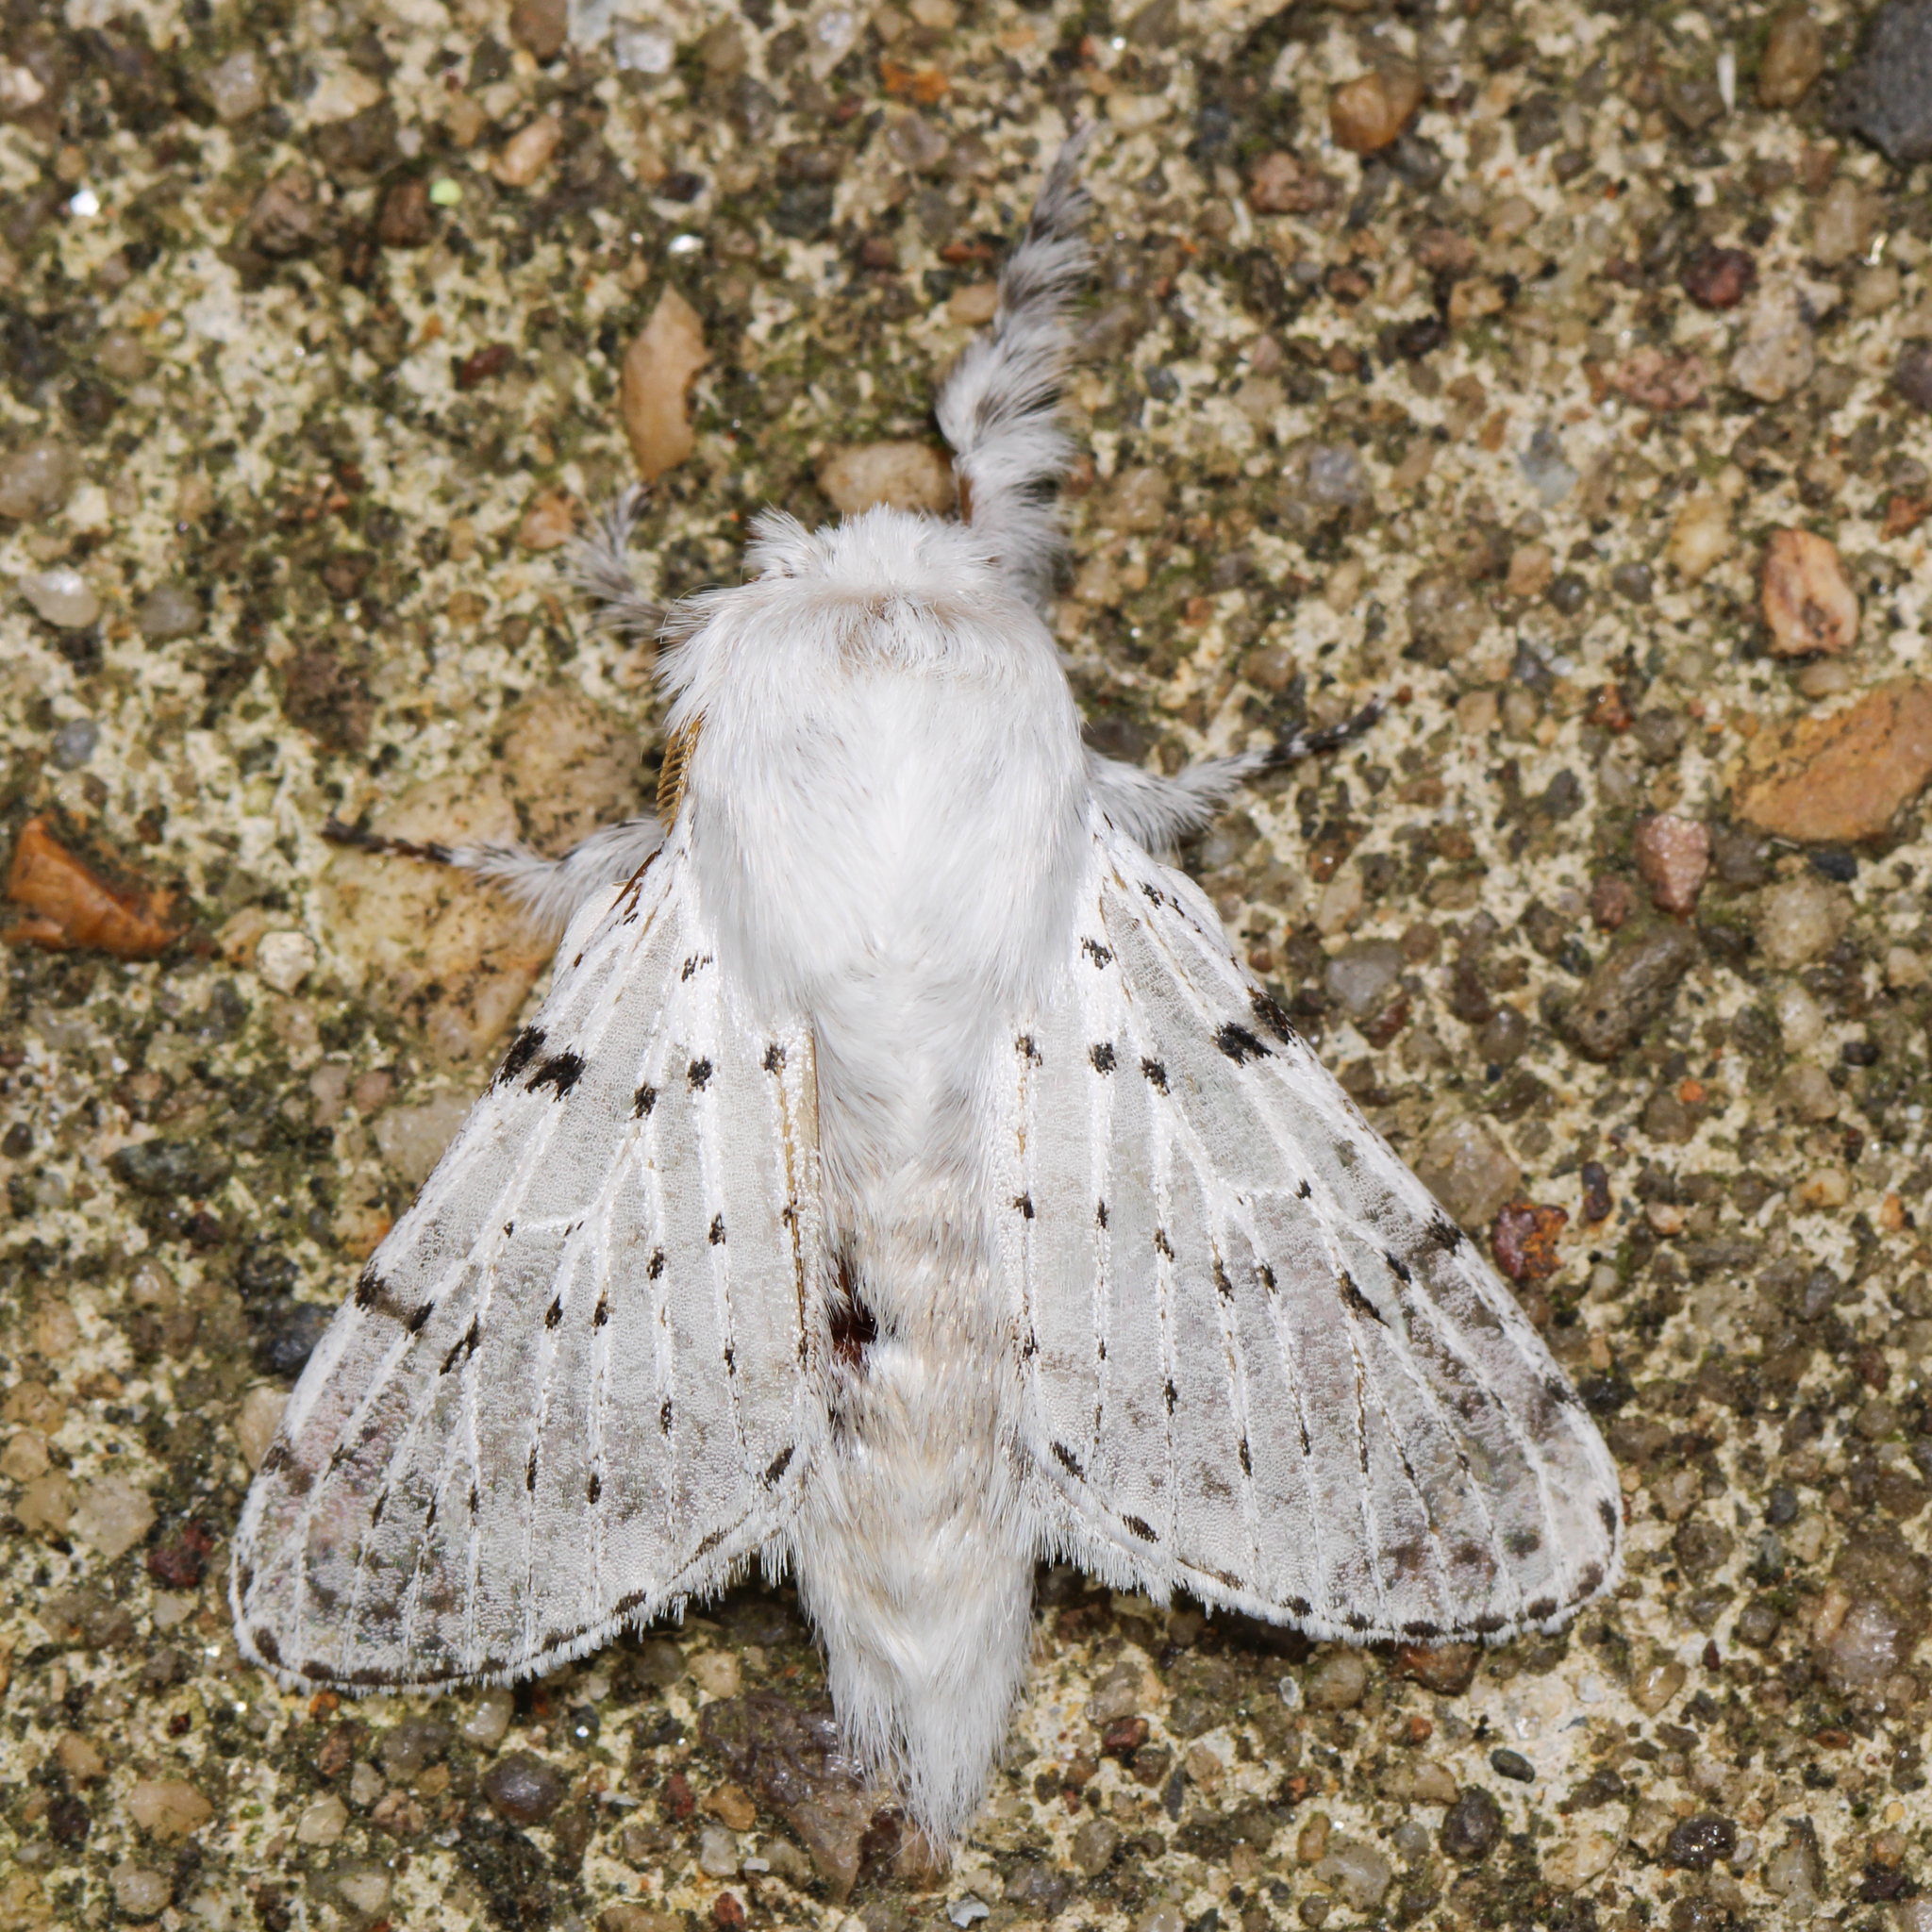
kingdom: Animalia
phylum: Arthropoda
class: Insecta
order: Lepidoptera
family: Lasiocampidae
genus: Artace
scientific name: Artace cribrarius
